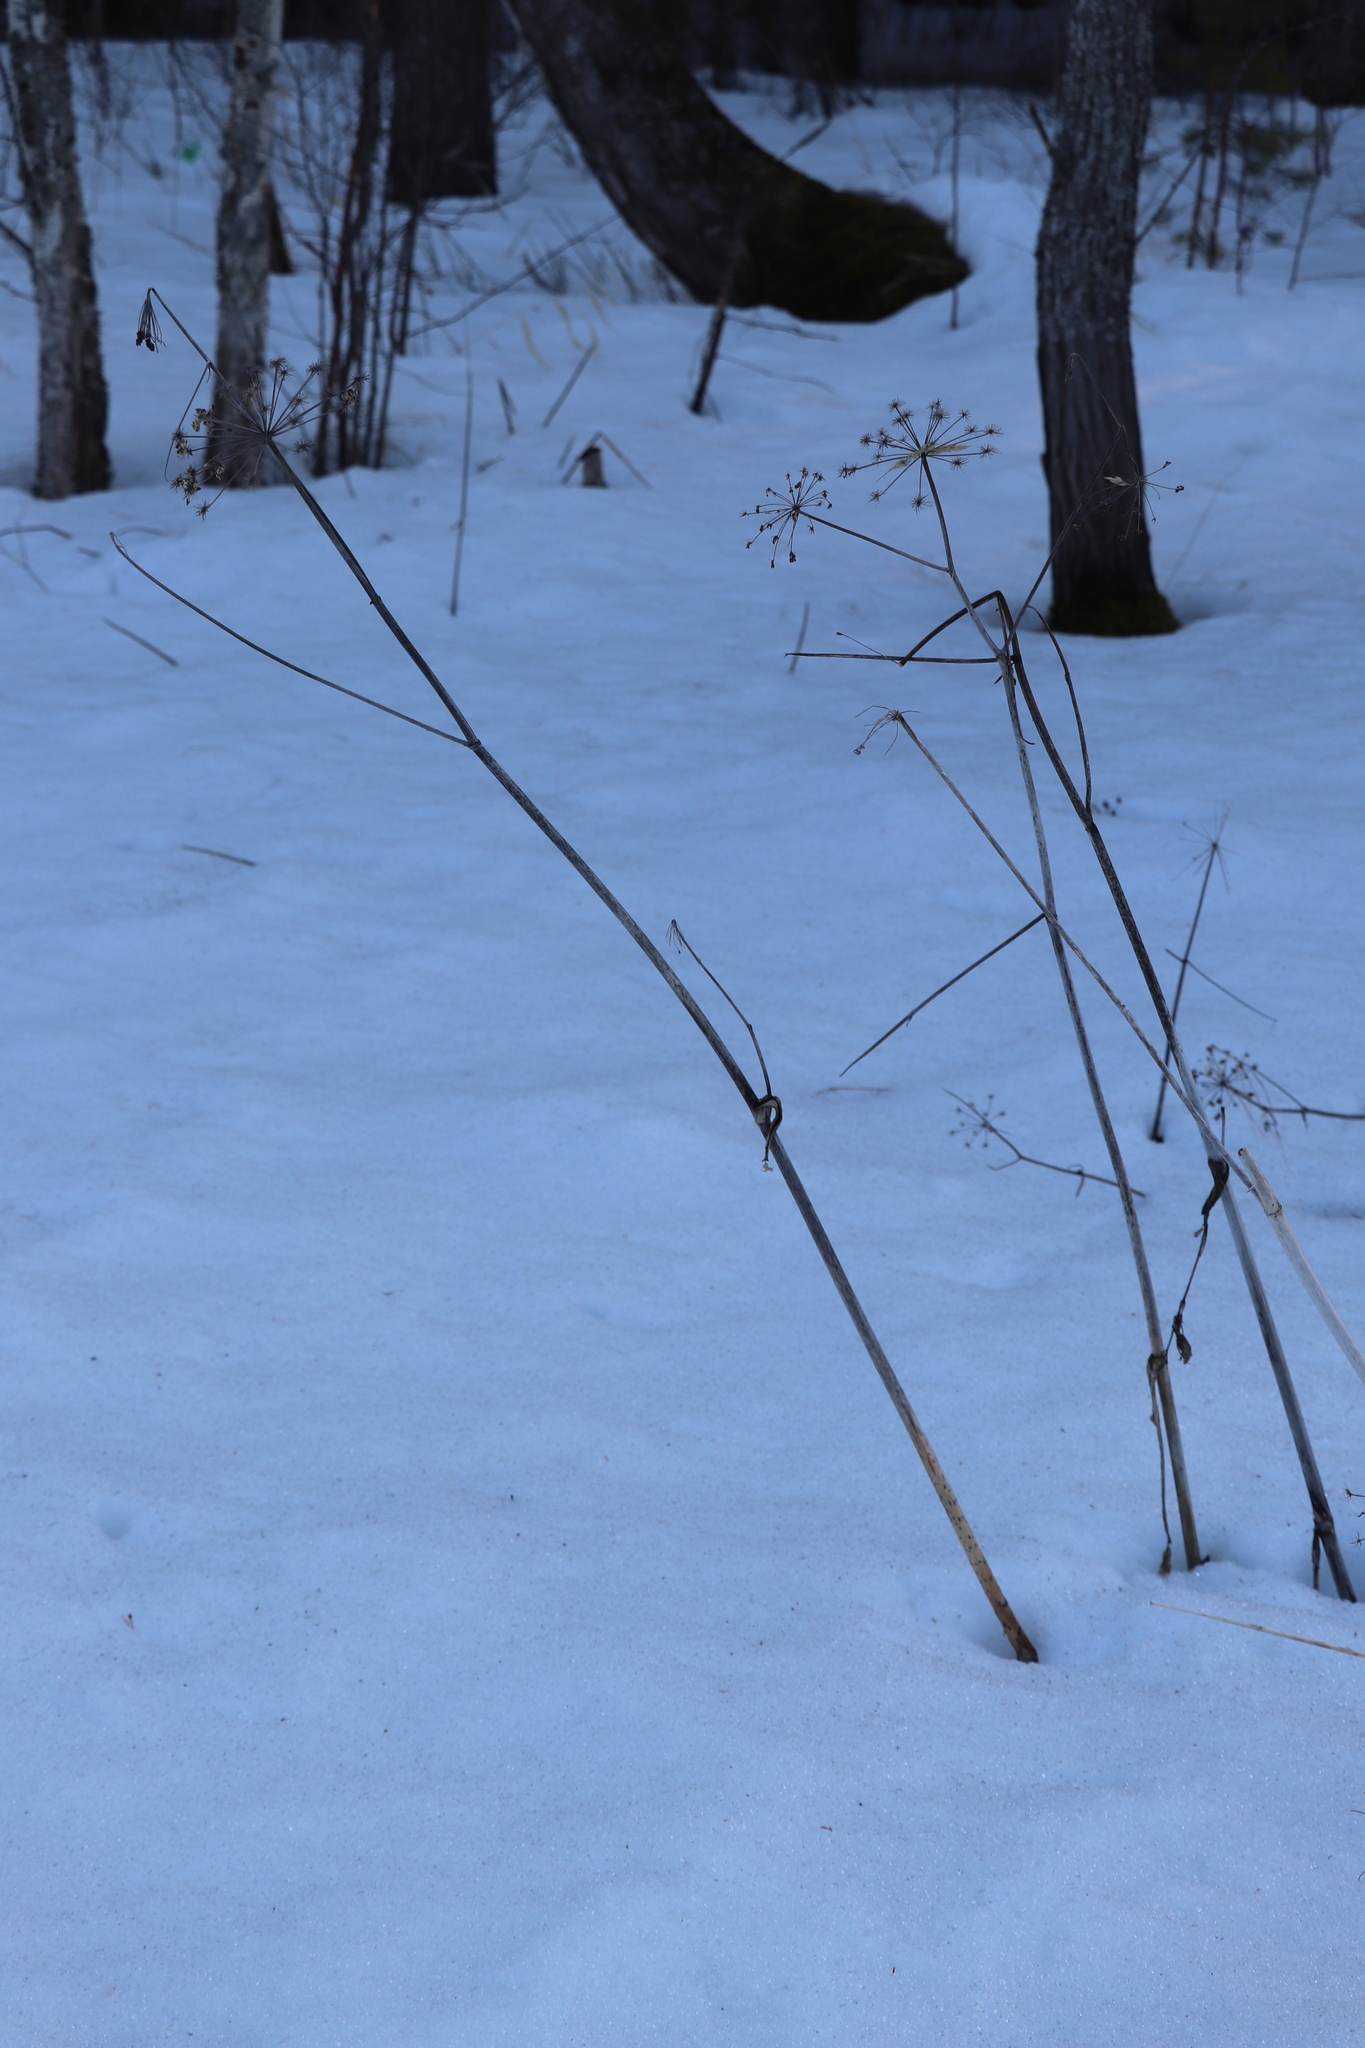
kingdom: Plantae
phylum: Tracheophyta
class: Magnoliopsida
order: Apiales
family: Apiaceae
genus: Angelica
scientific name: Angelica sylvestris
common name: Wild angelica
